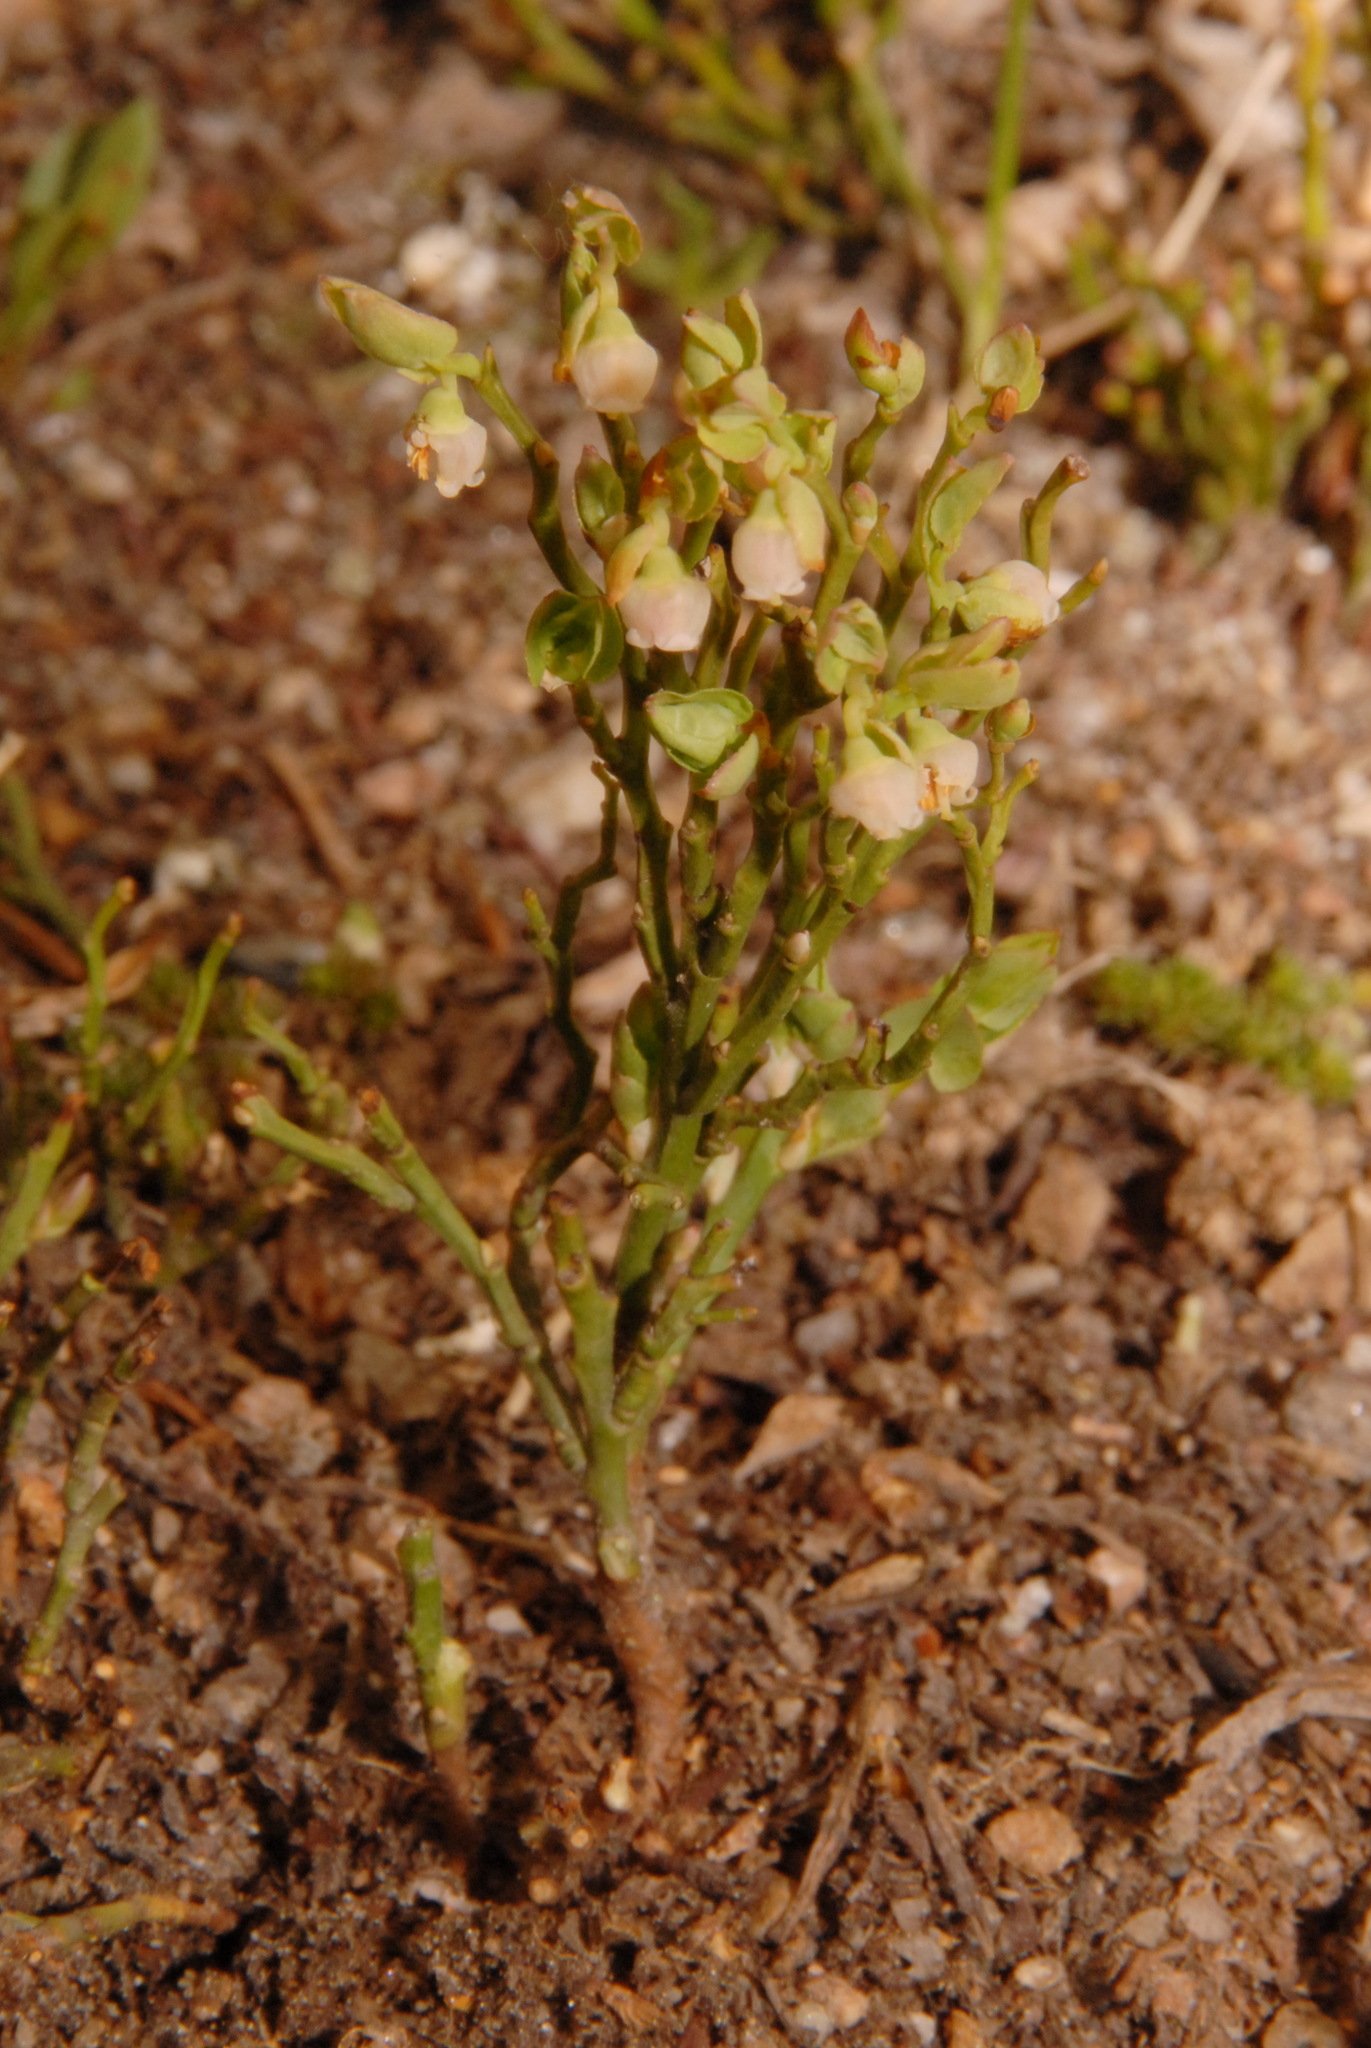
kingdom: Plantae
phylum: Tracheophyta
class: Magnoliopsida
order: Ericales
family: Ericaceae
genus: Vaccinium
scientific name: Vaccinium scoparium
